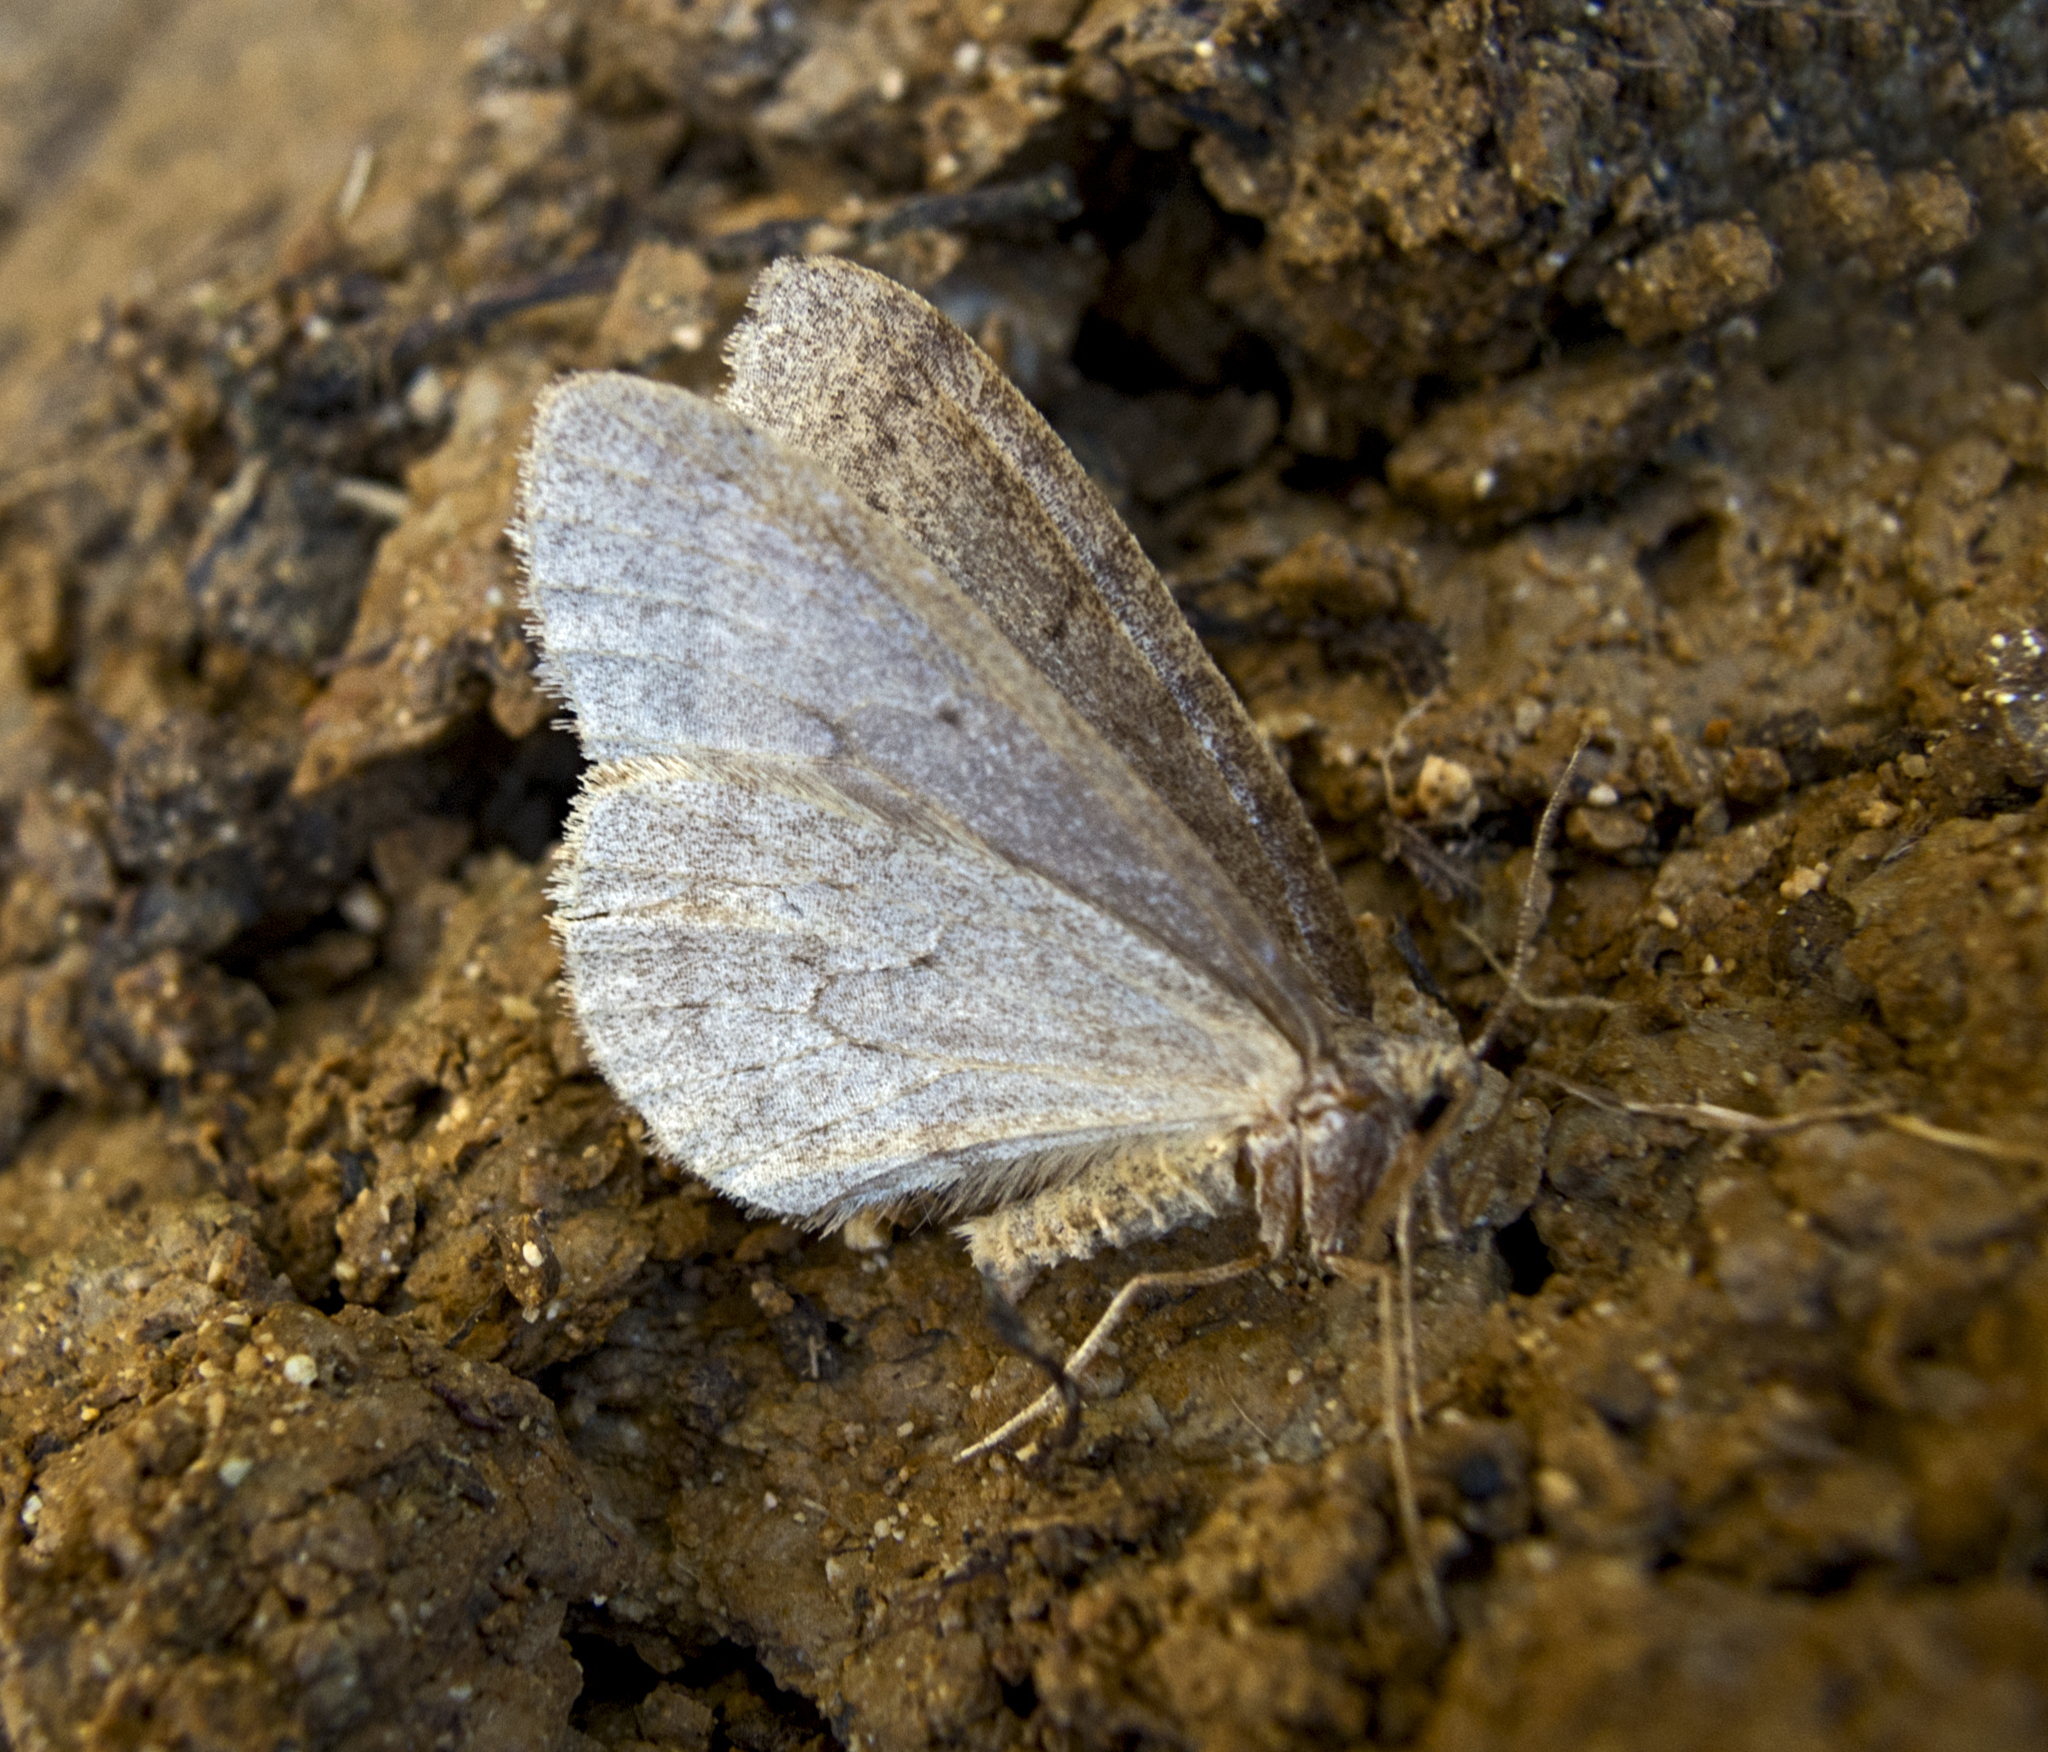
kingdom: Animalia
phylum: Arthropoda
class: Insecta
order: Lepidoptera
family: Geometridae
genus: Operophtera
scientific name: Operophtera brumata
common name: Winter moth
